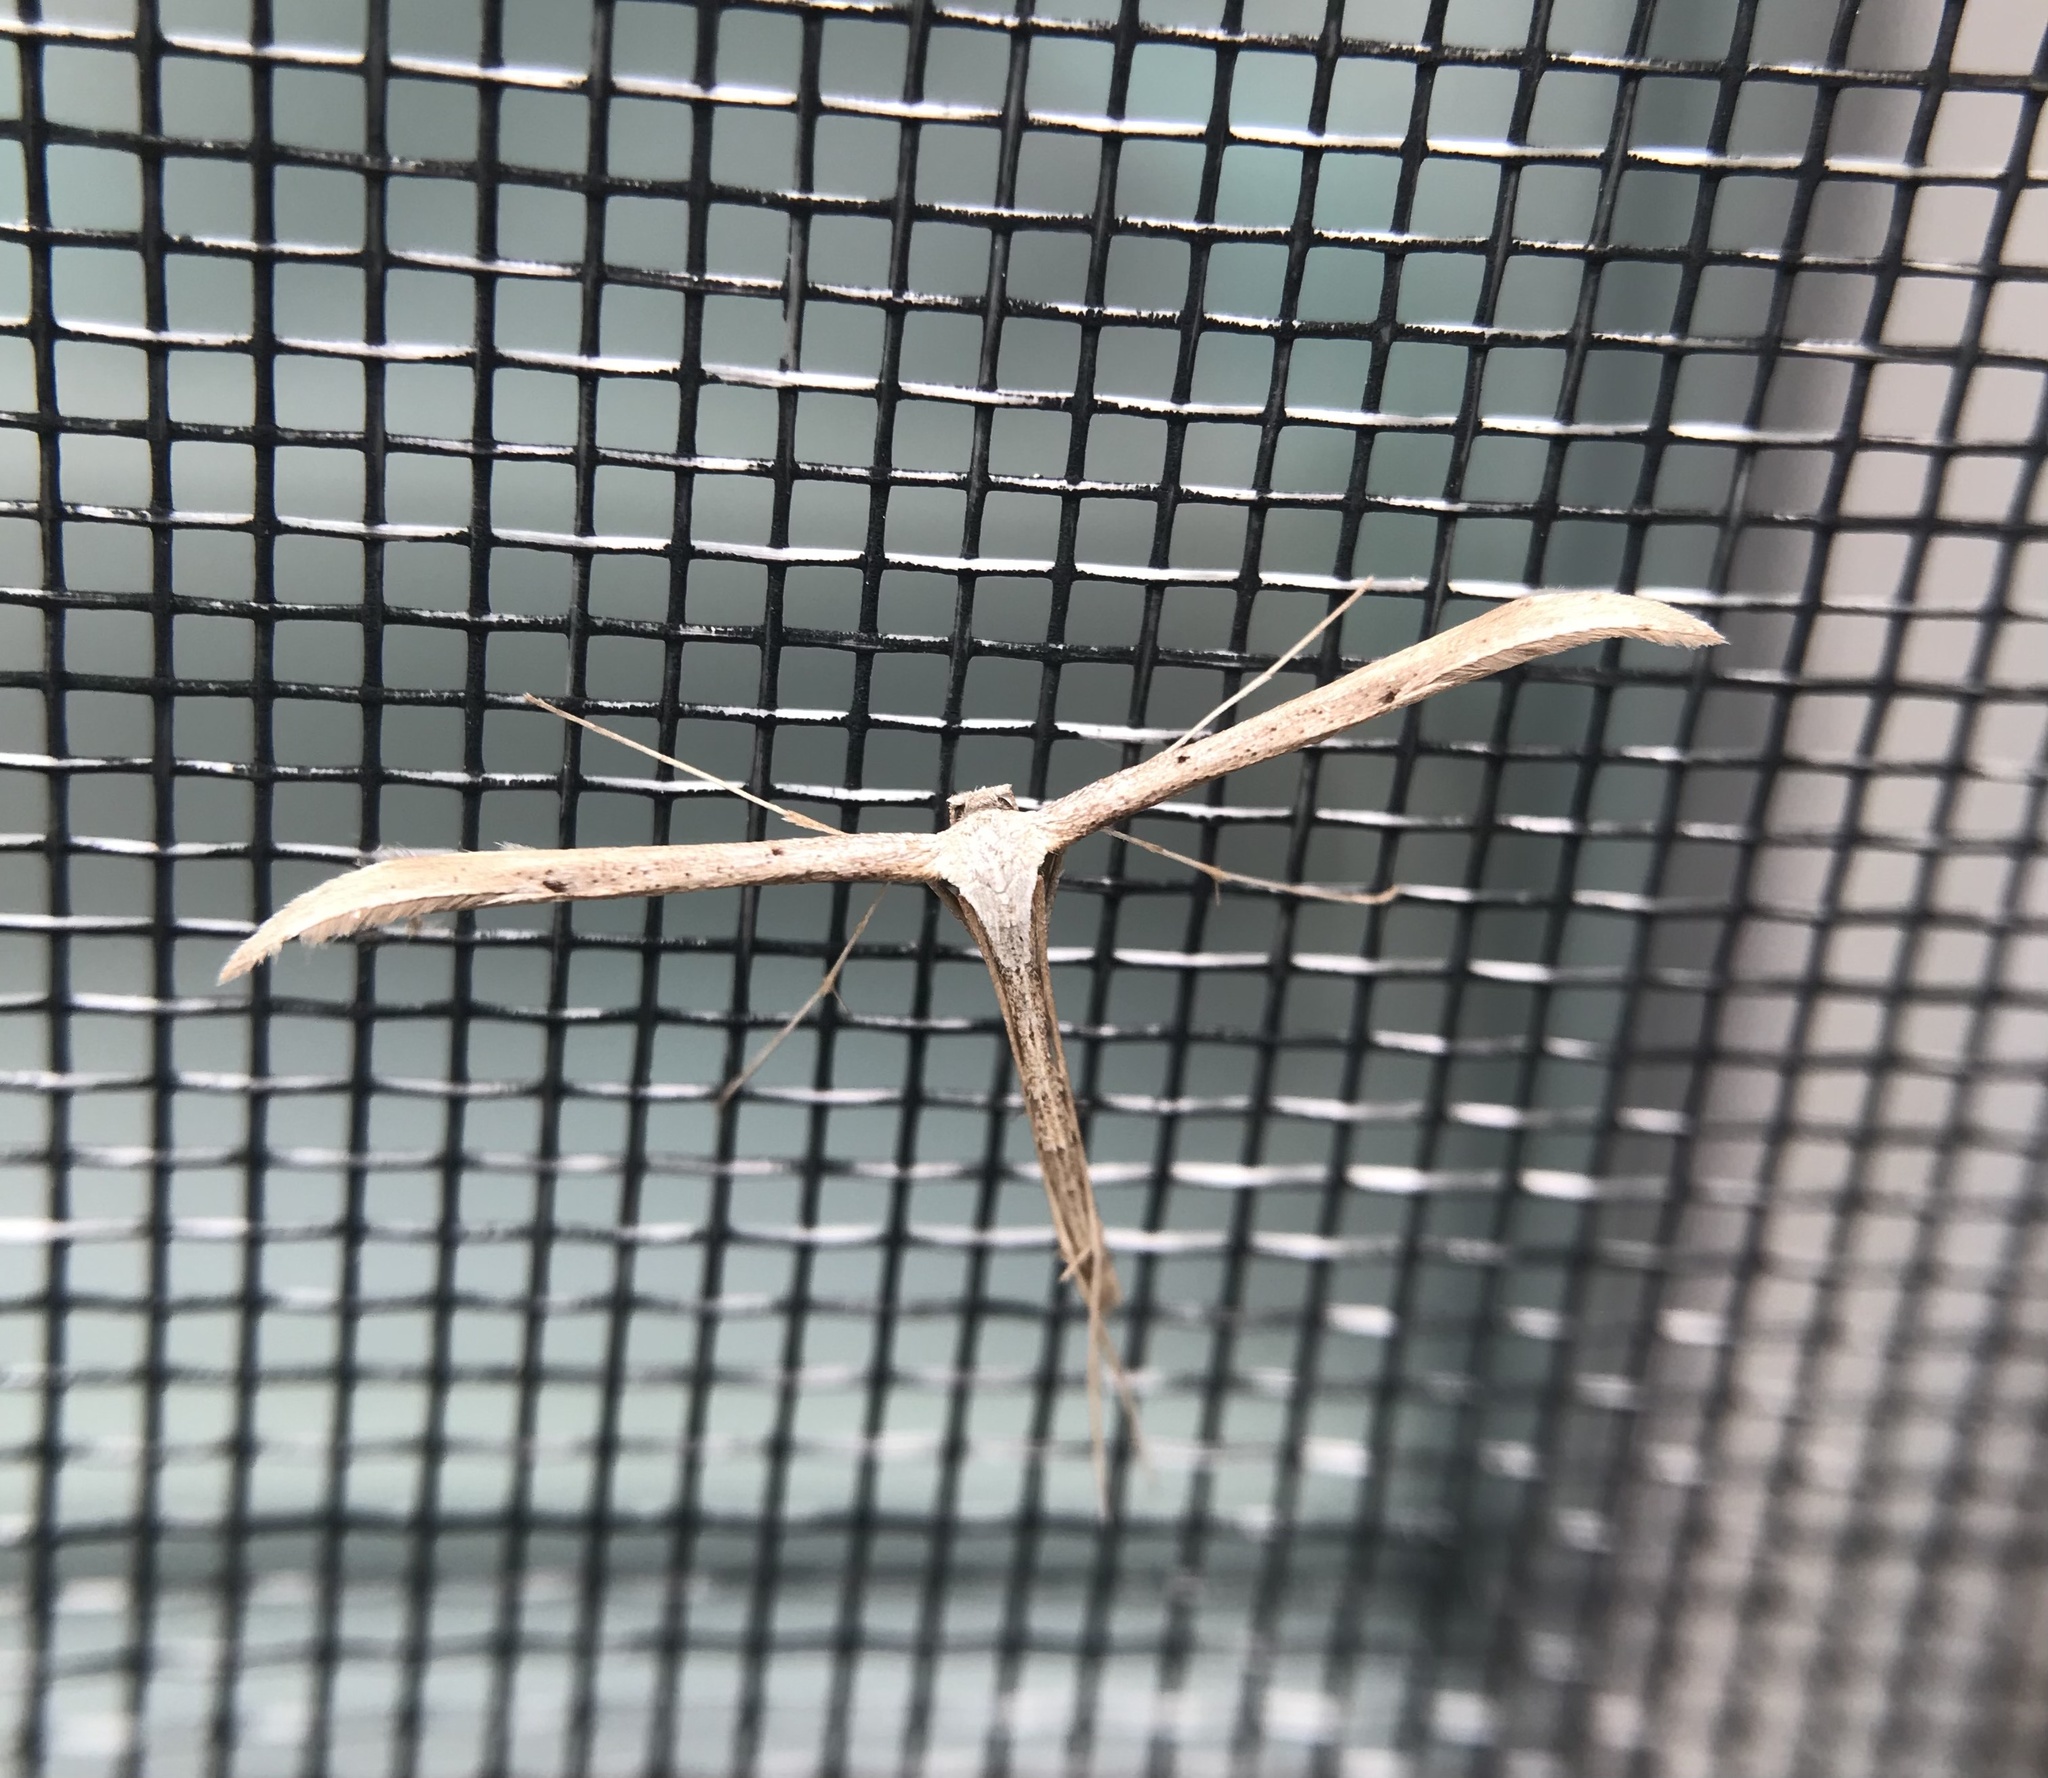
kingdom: Animalia
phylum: Arthropoda
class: Insecta
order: Lepidoptera
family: Pterophoridae
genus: Emmelina
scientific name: Emmelina monodactyla
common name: Common plume
